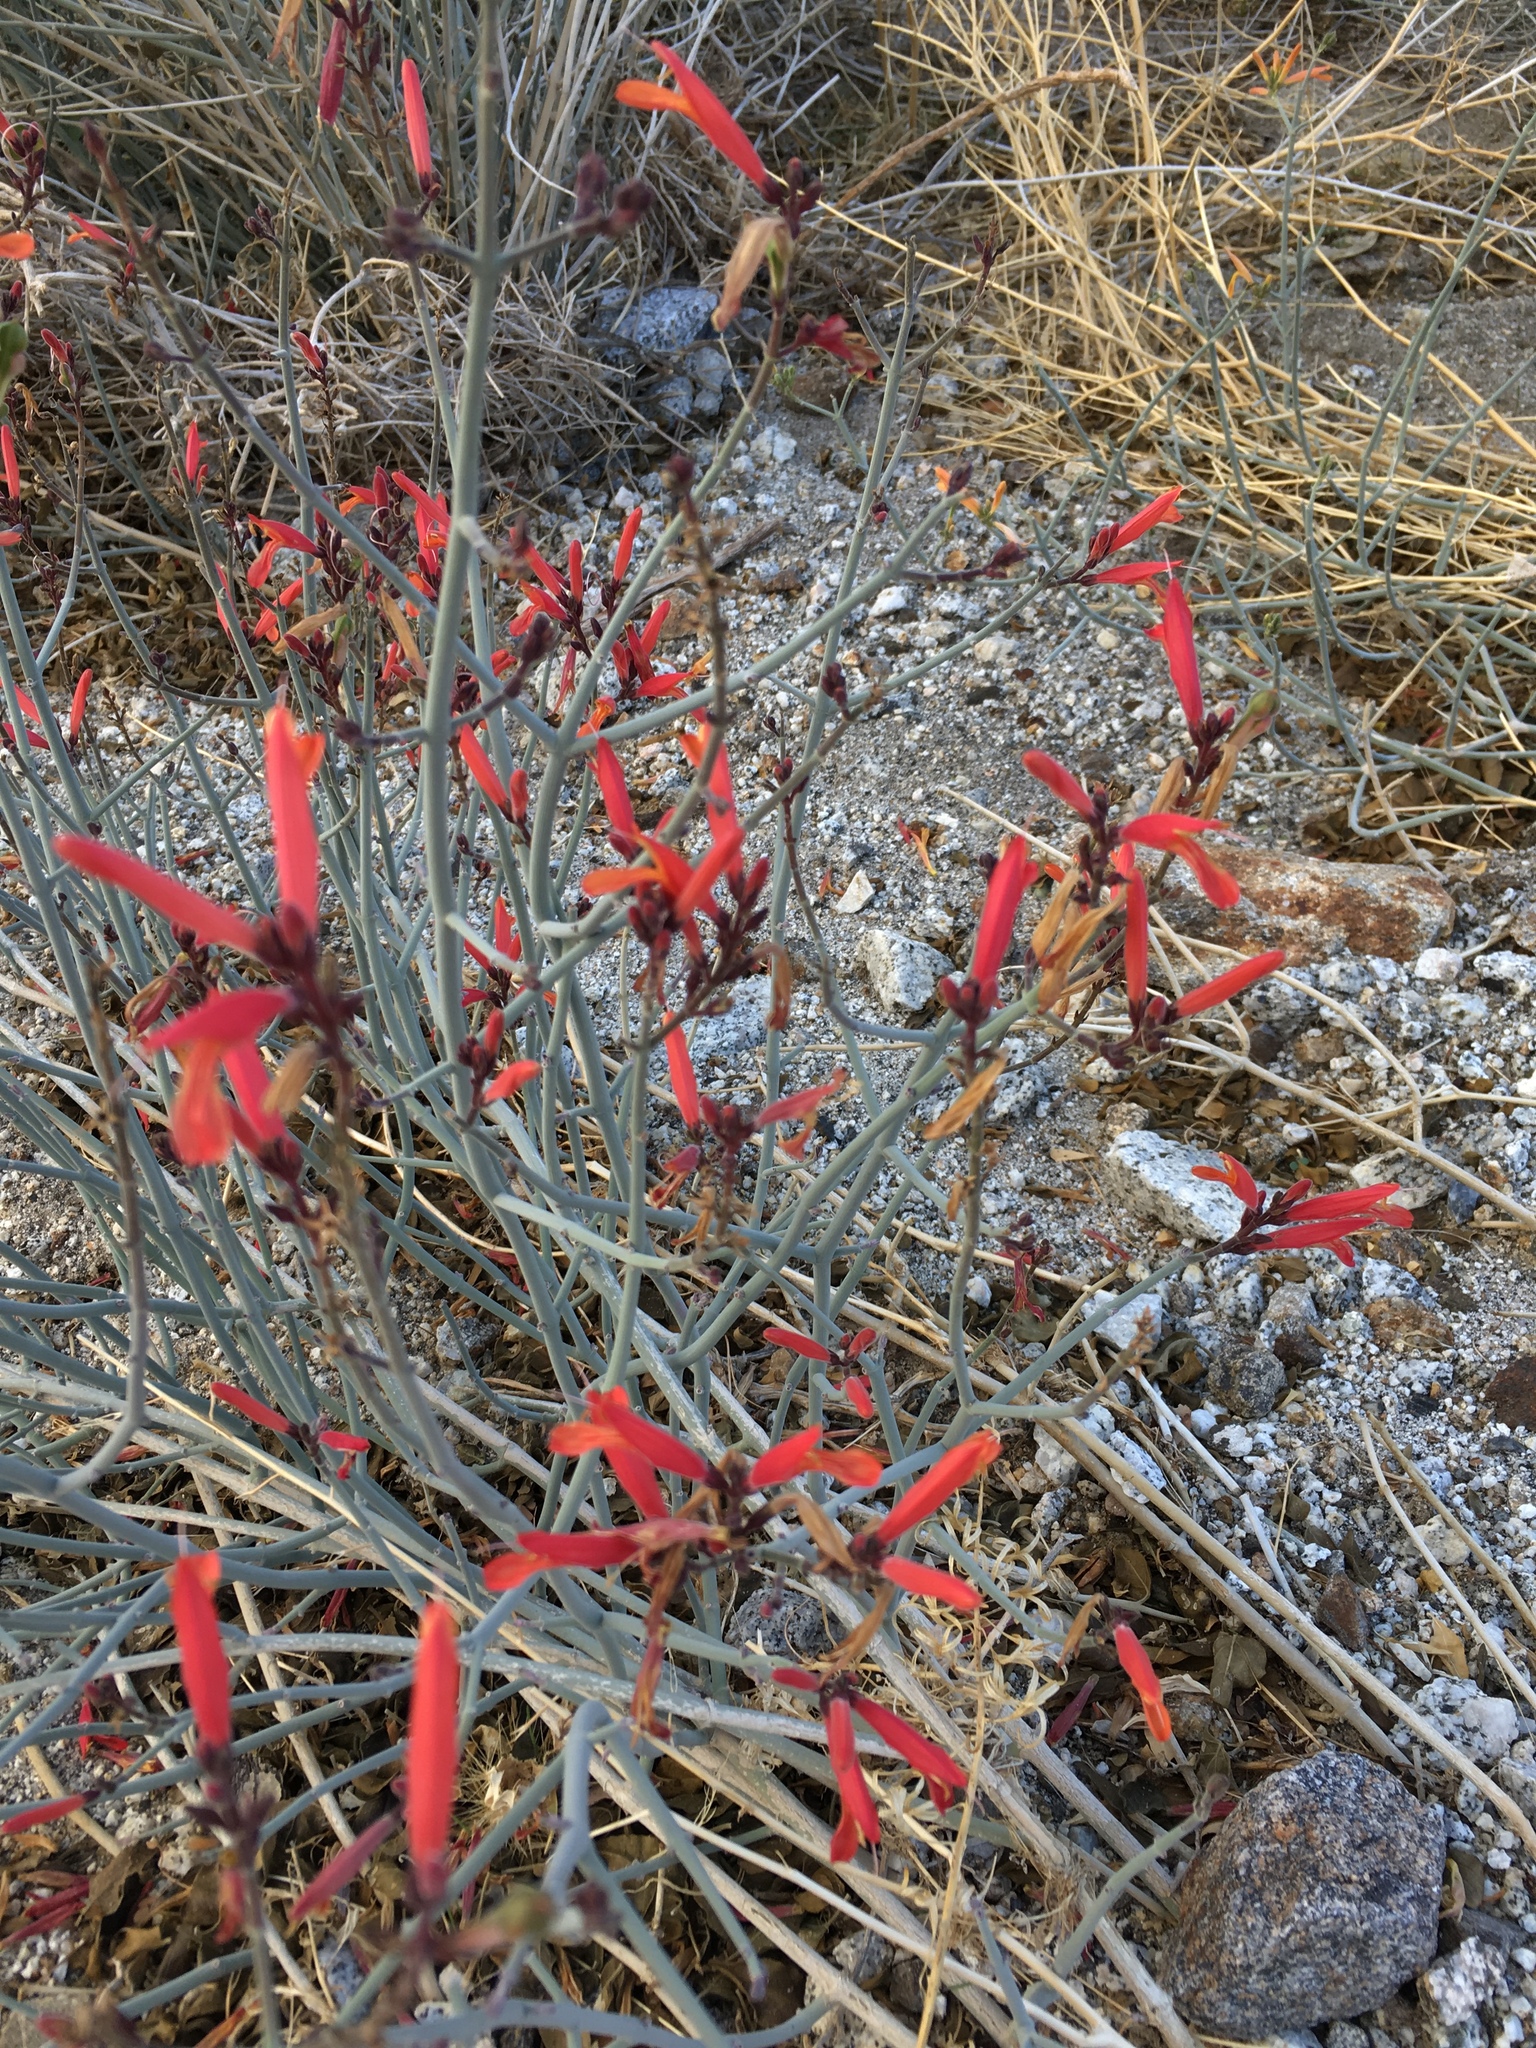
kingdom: Plantae
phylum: Tracheophyta
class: Magnoliopsida
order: Lamiales
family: Acanthaceae
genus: Justicia
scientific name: Justicia californica
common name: Chuparosa-honeysuckle
